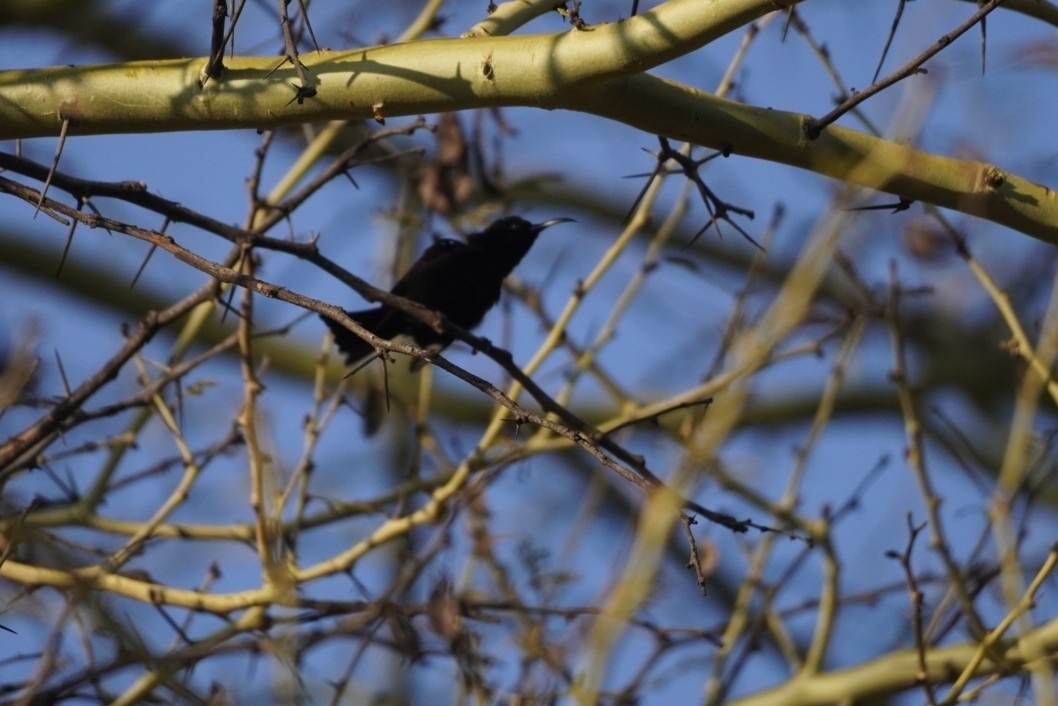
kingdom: Animalia
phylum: Chordata
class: Aves
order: Passeriformes
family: Nectariniidae
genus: Chalcomitra
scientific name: Chalcomitra amethystina
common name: Amethyst sunbird
